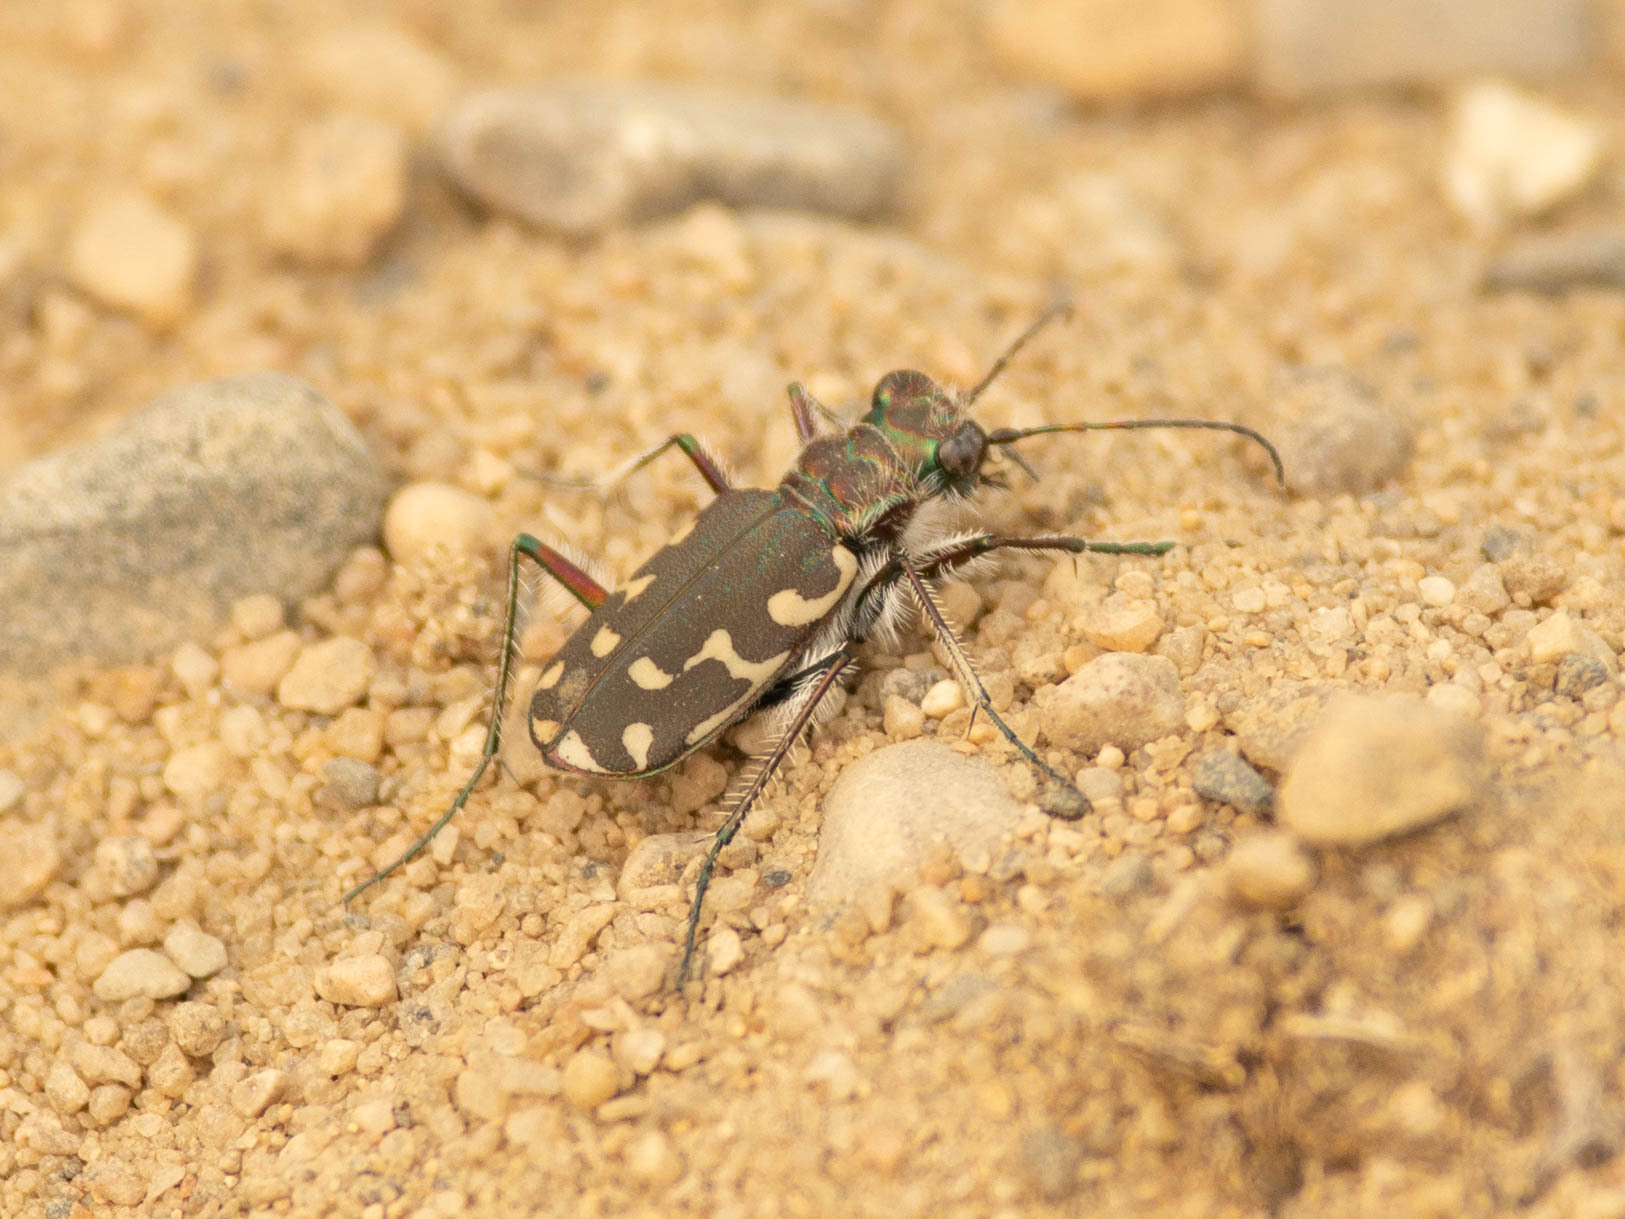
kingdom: Animalia
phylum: Arthropoda
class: Insecta
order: Coleoptera
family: Carabidae
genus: Cicindela
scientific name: Cicindela duodecimguttata
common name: Twelve-spotted tiger beetle
